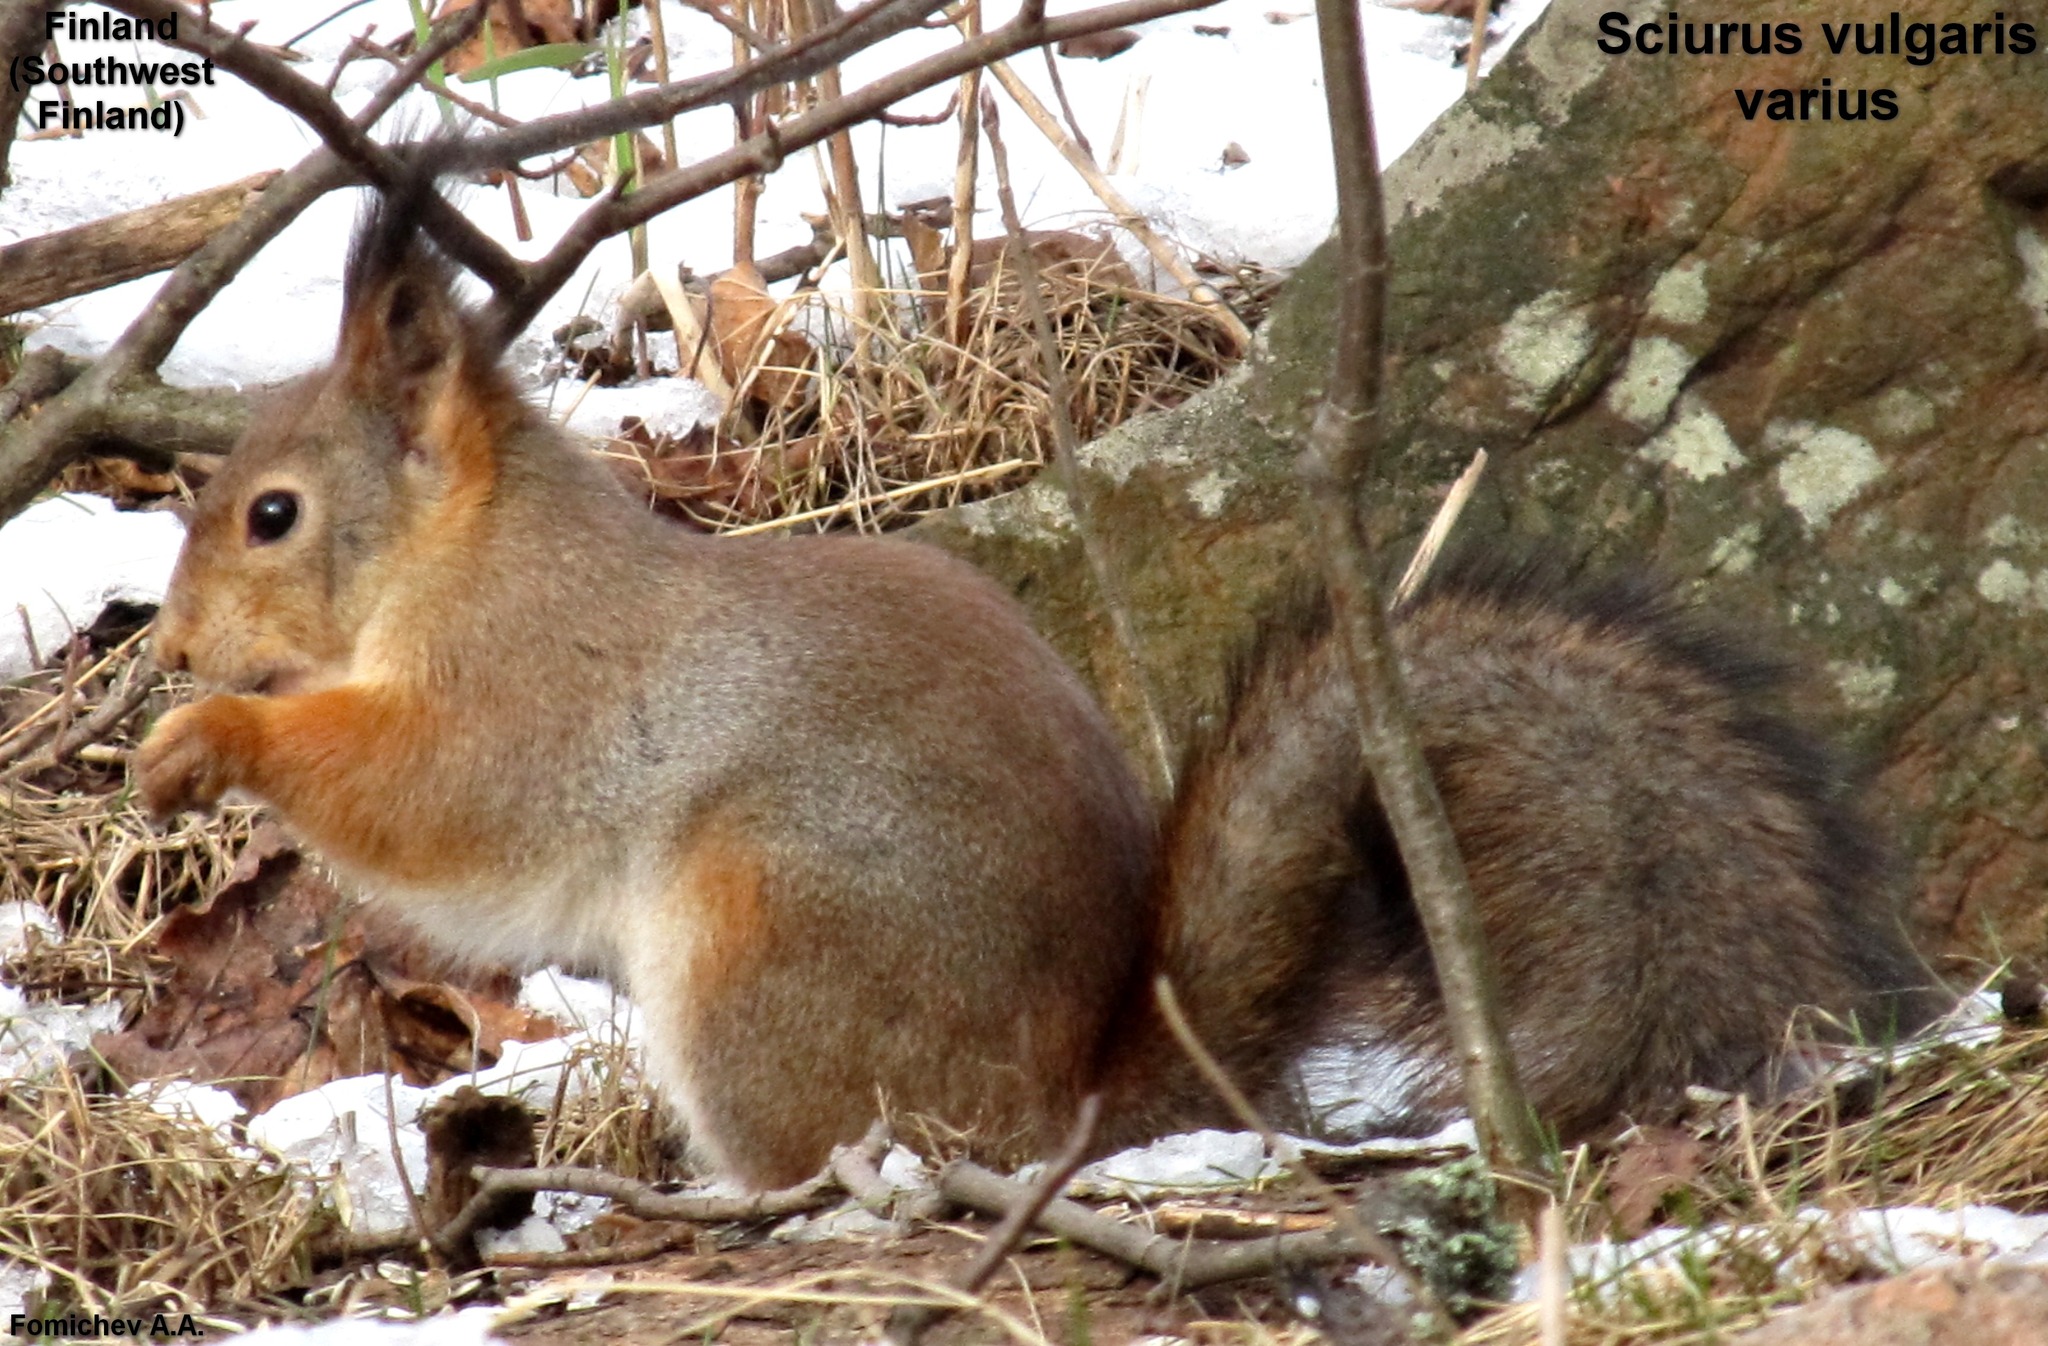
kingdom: Animalia
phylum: Chordata
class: Mammalia
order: Rodentia
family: Sciuridae
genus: Sciurus
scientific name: Sciurus vulgaris
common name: Eurasian red squirrel
